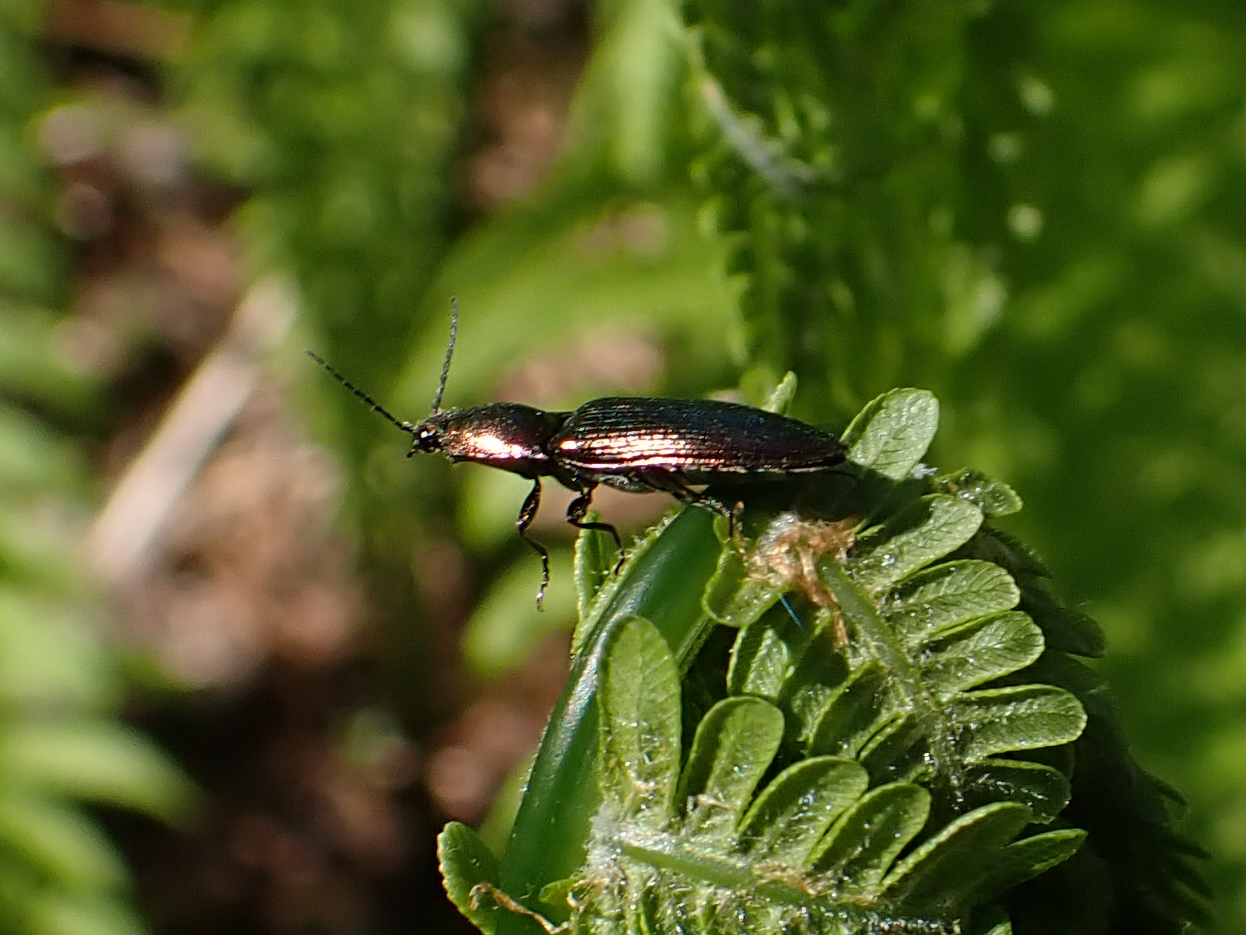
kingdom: Animalia
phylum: Arthropoda
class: Insecta
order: Coleoptera
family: Elateridae
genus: Nitidolimonius
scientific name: Nitidolimonius resplendens
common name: Resplendent click beetle
